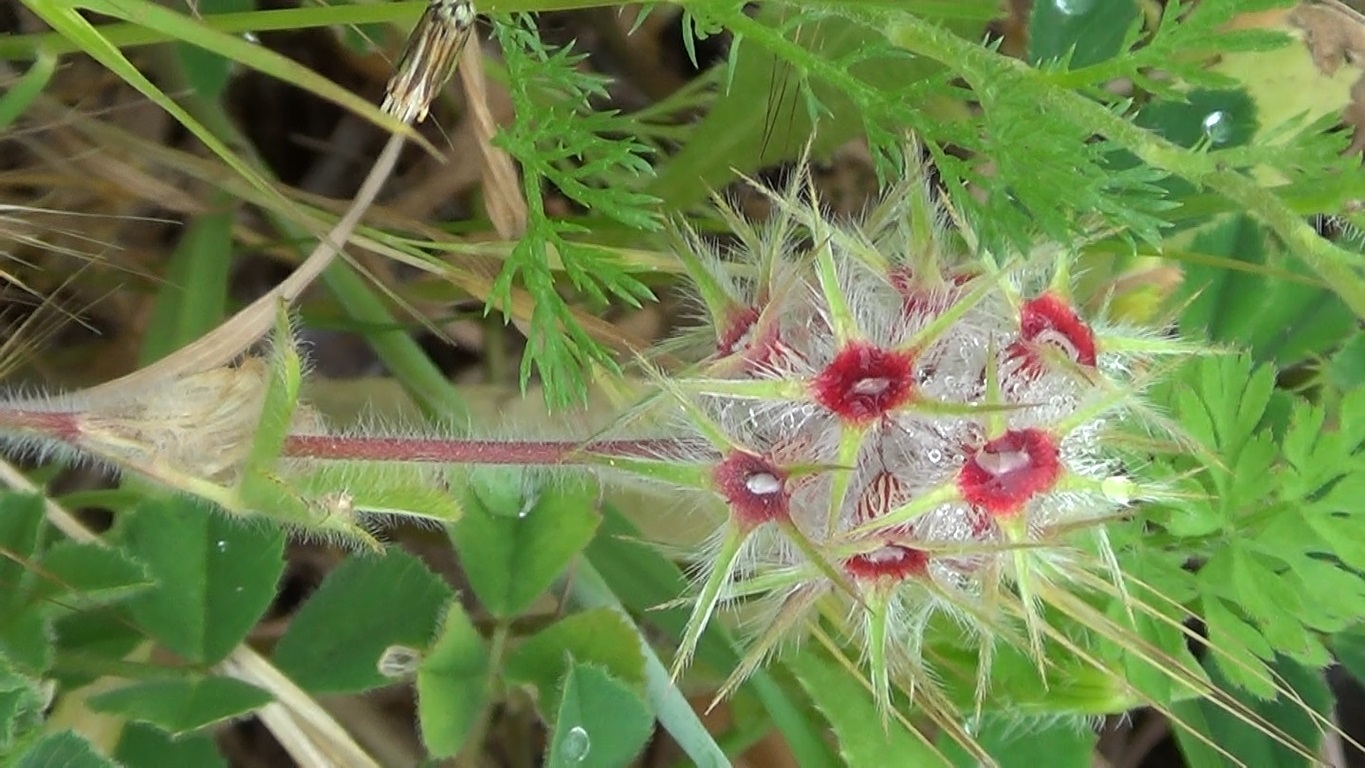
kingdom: Plantae
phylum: Tracheophyta
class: Magnoliopsida
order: Fabales
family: Fabaceae
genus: Trifolium
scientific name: Trifolium stellatum
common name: Starry clover
